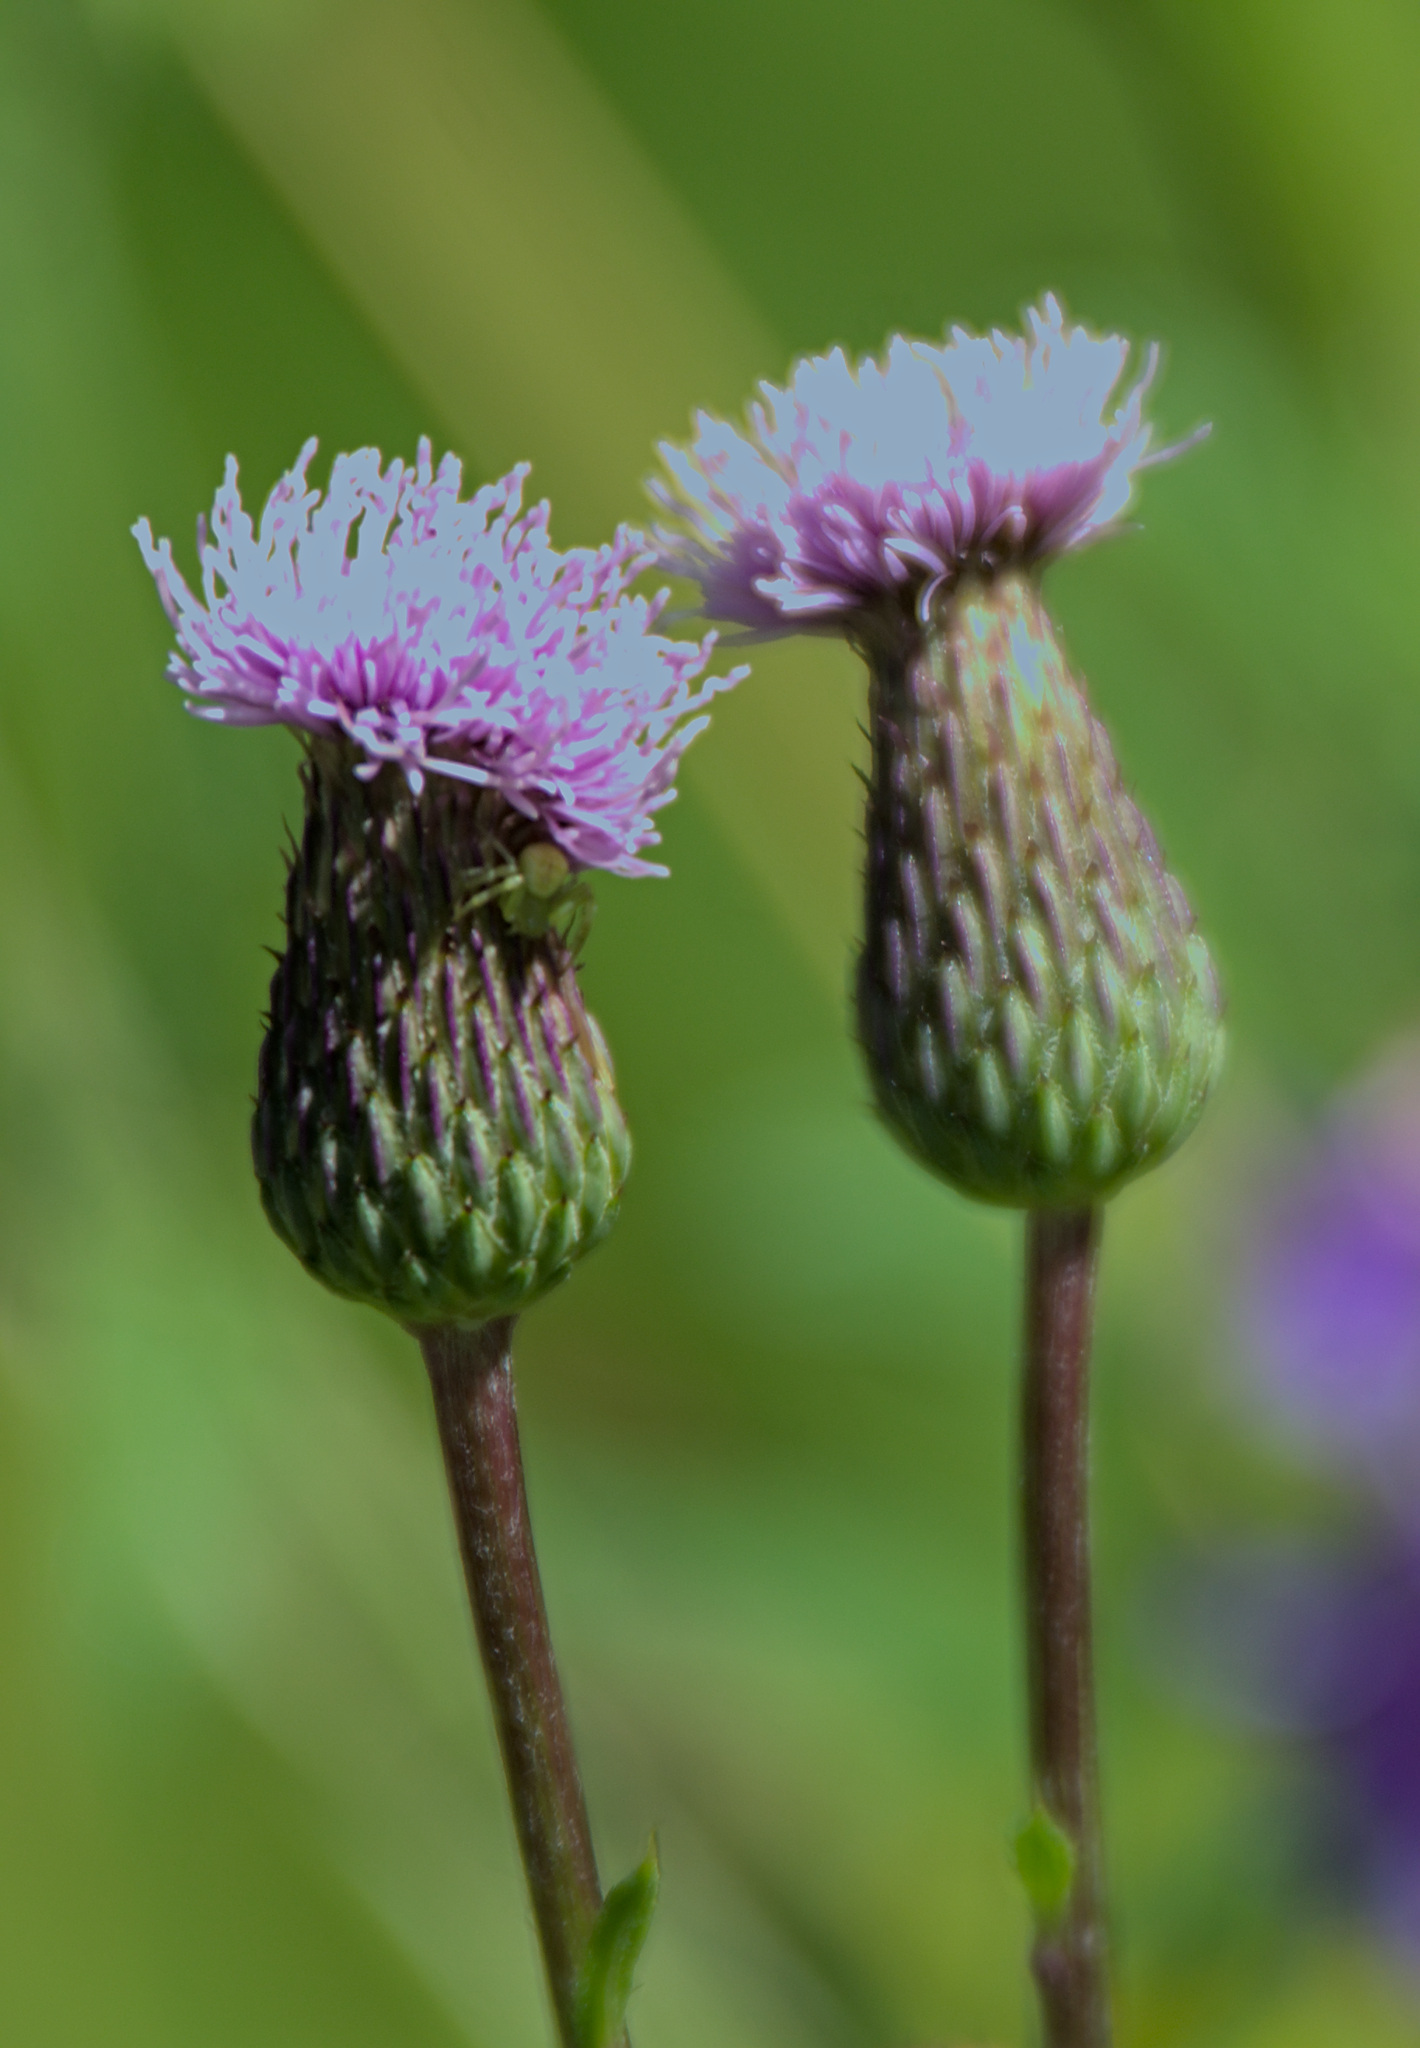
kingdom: Plantae
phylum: Tracheophyta
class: Magnoliopsida
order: Asterales
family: Asteraceae
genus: Cirsium
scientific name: Cirsium arvense
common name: Creeping thistle
